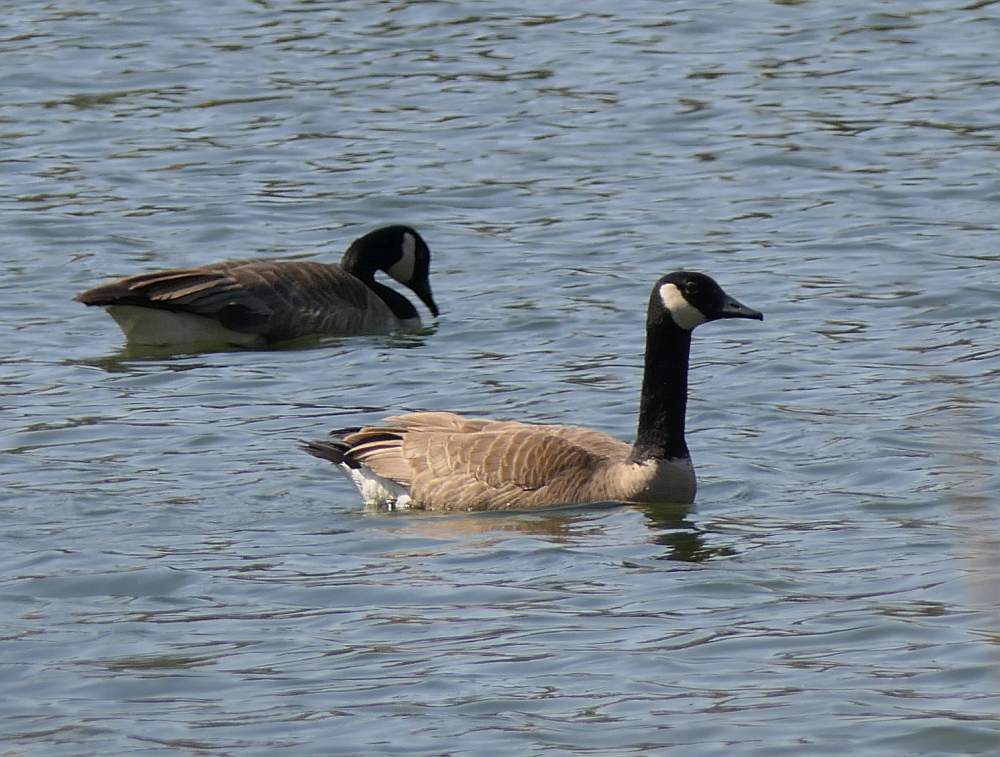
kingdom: Animalia
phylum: Chordata
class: Aves
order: Anseriformes
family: Anatidae
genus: Branta
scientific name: Branta canadensis
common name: Canada goose
